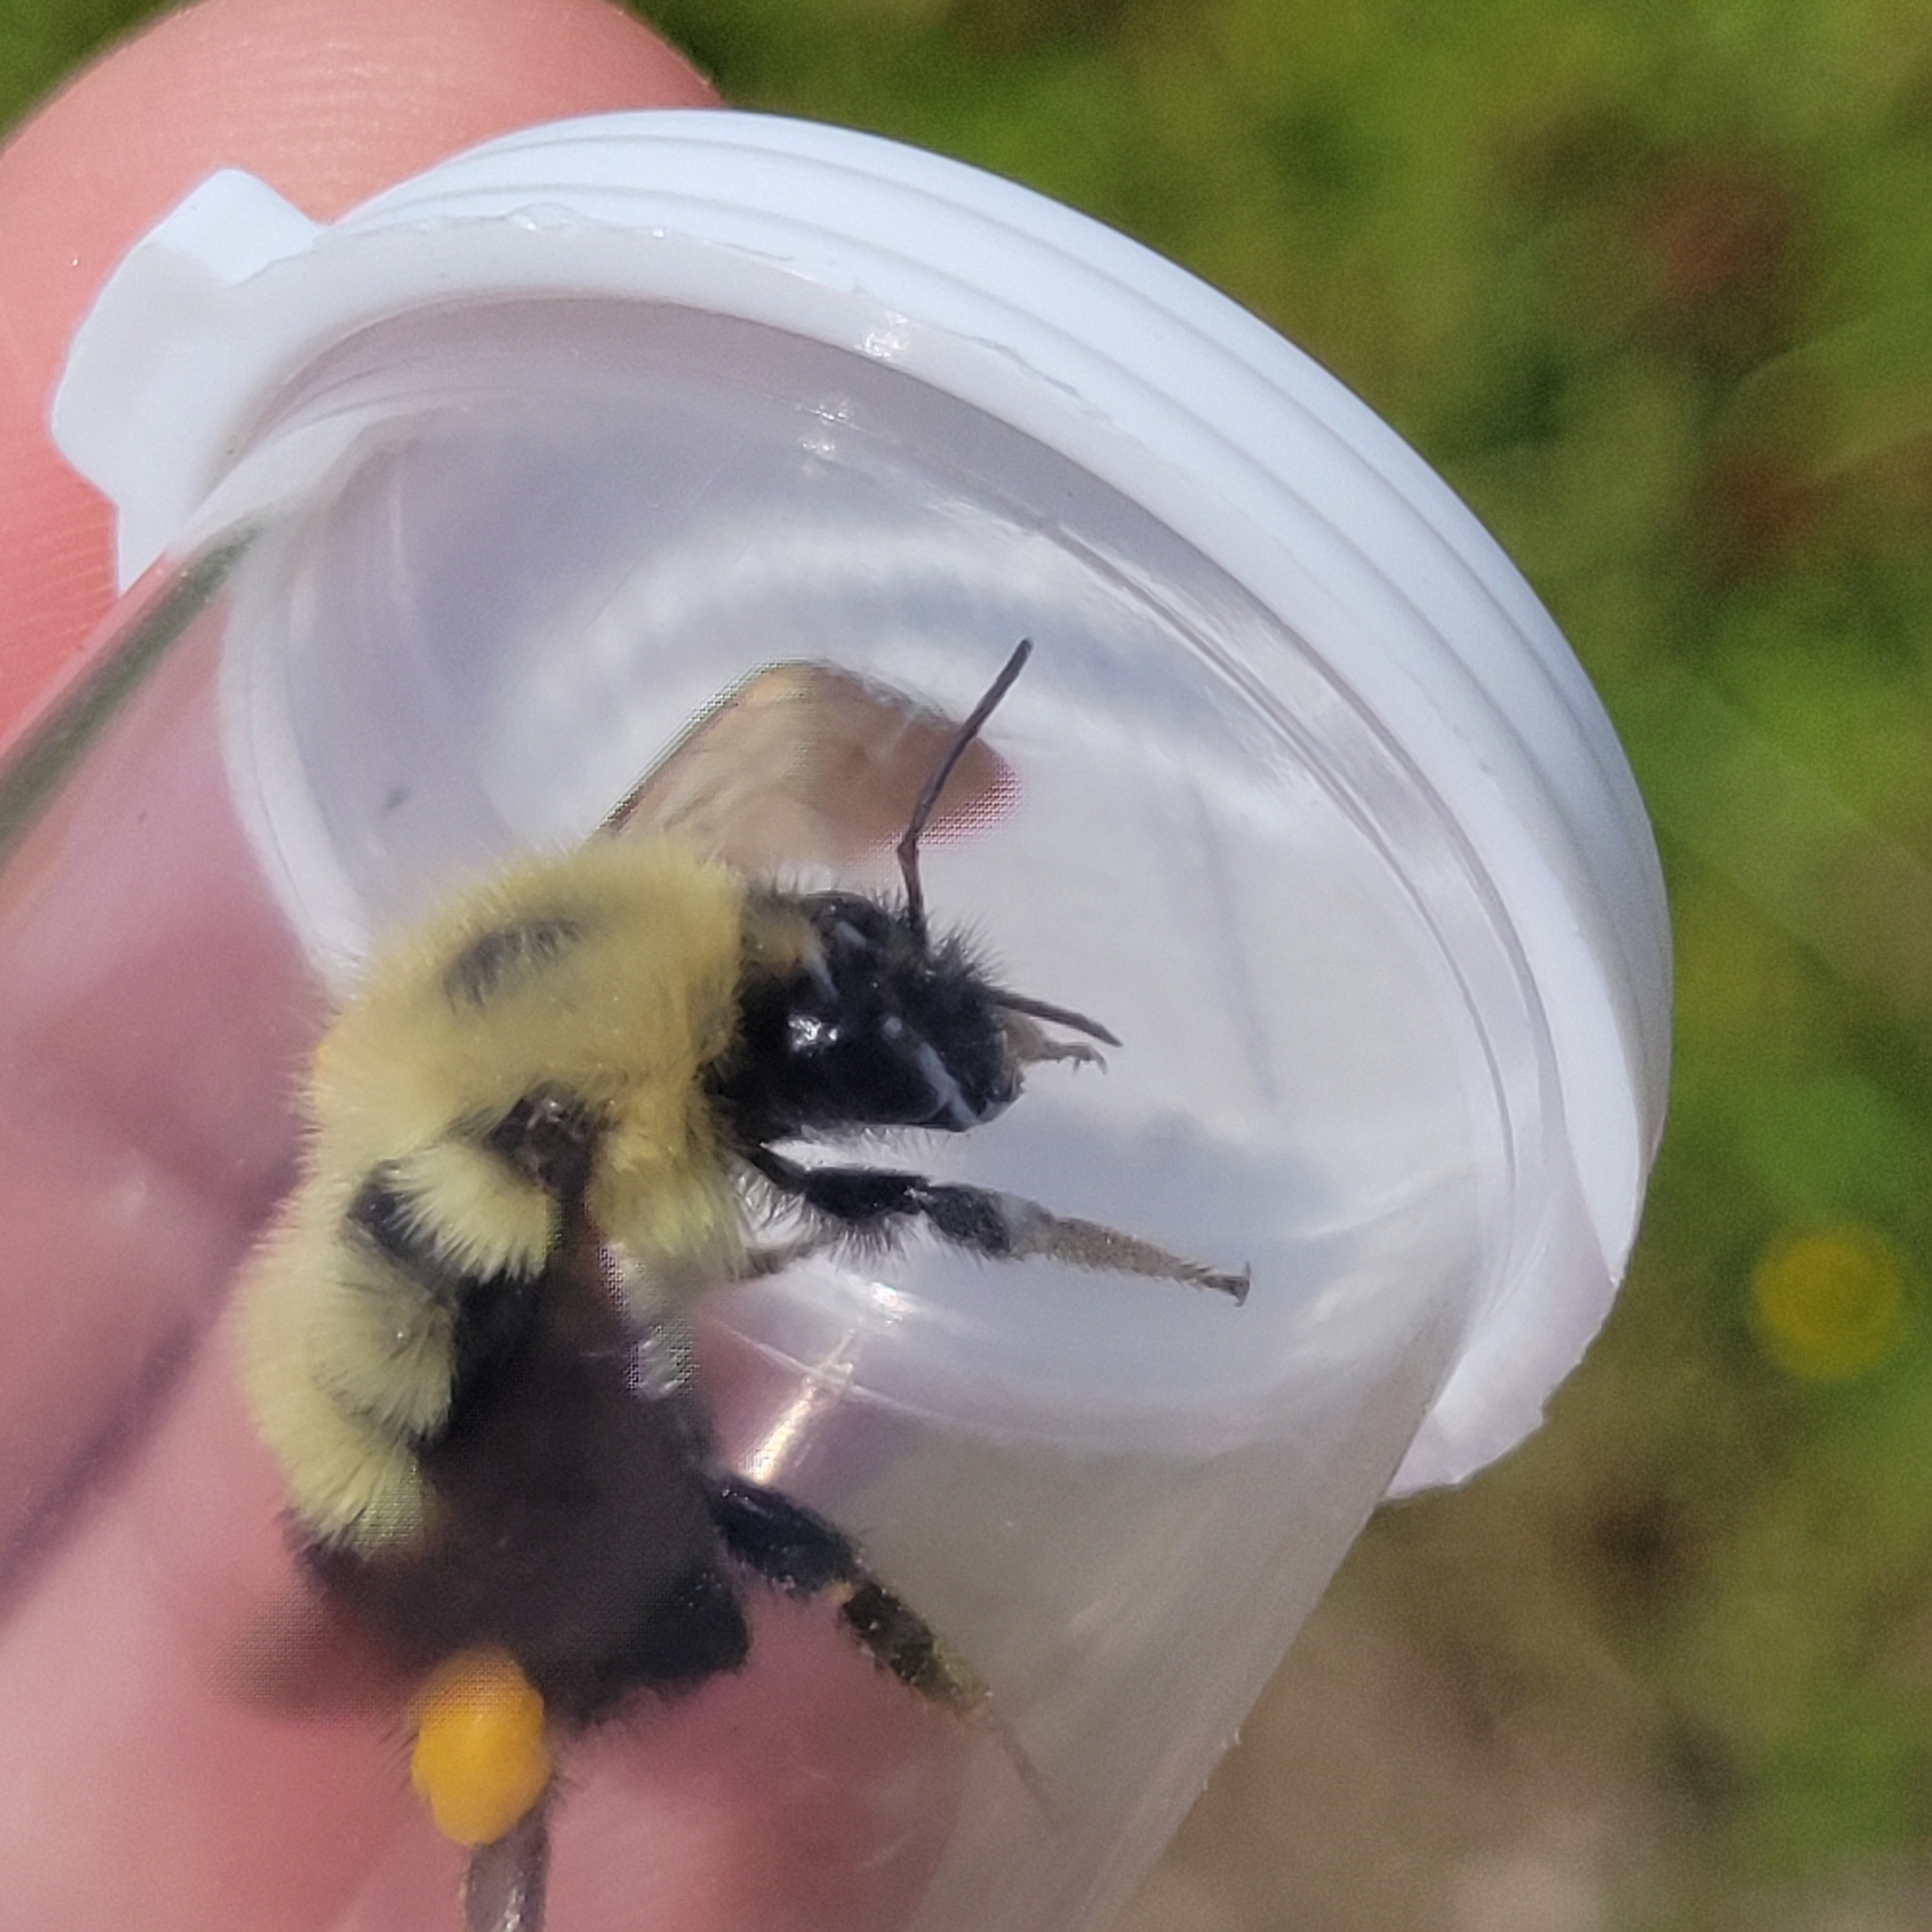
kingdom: Animalia
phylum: Arthropoda
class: Insecta
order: Hymenoptera
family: Apidae
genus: Bombus
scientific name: Bombus vagans
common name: Half-black bumble bee
